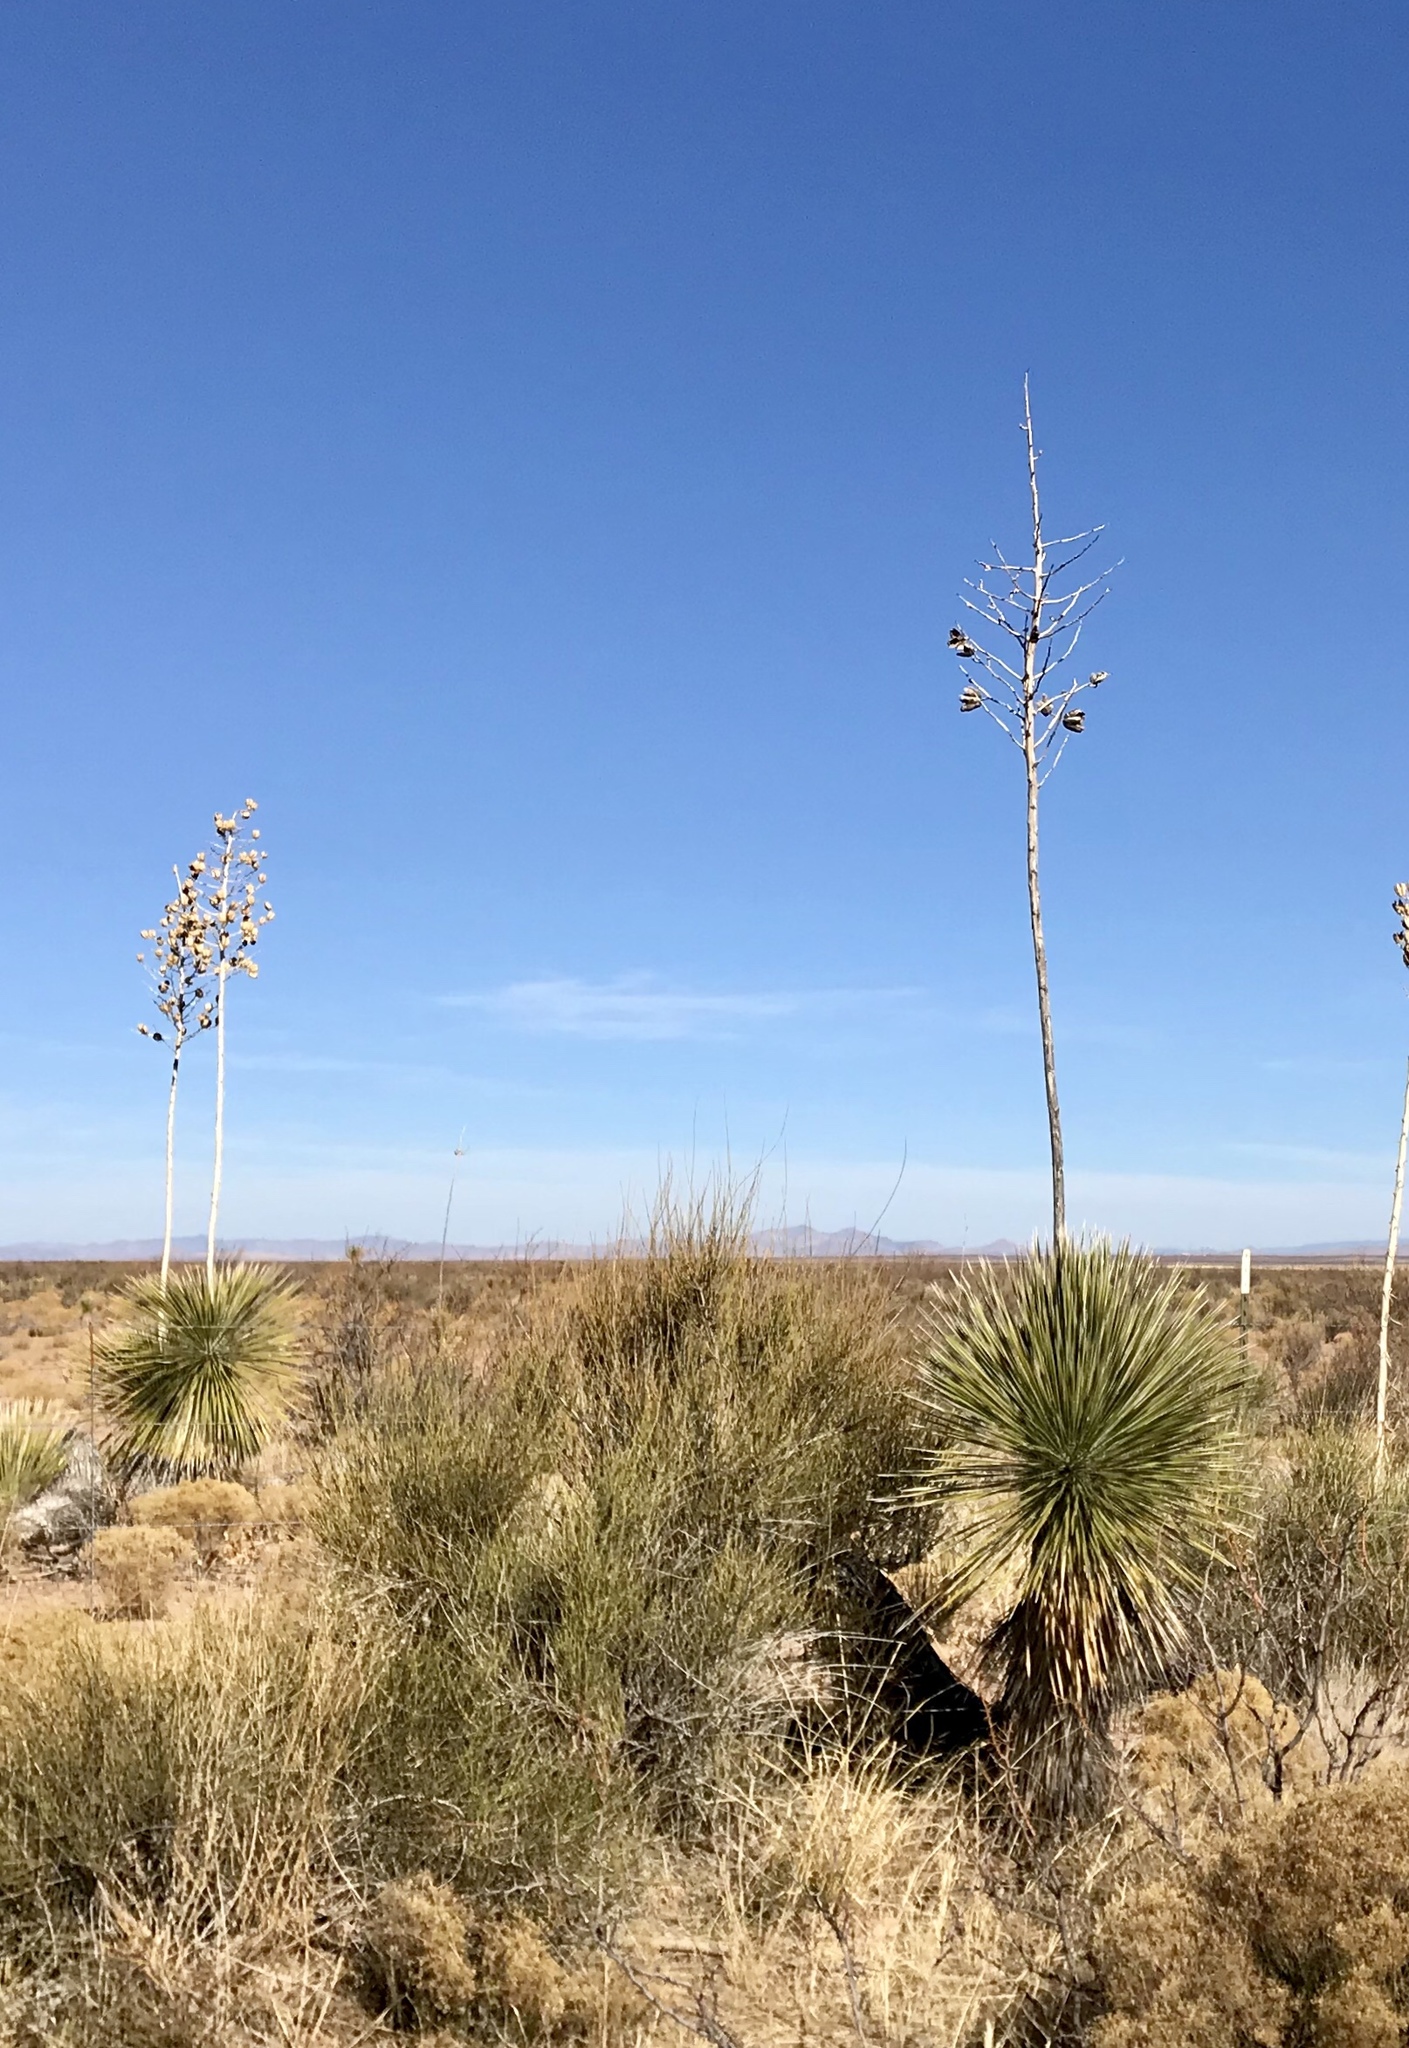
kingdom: Plantae
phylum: Tracheophyta
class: Liliopsida
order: Asparagales
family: Asparagaceae
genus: Yucca
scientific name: Yucca elata
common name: Palmella
